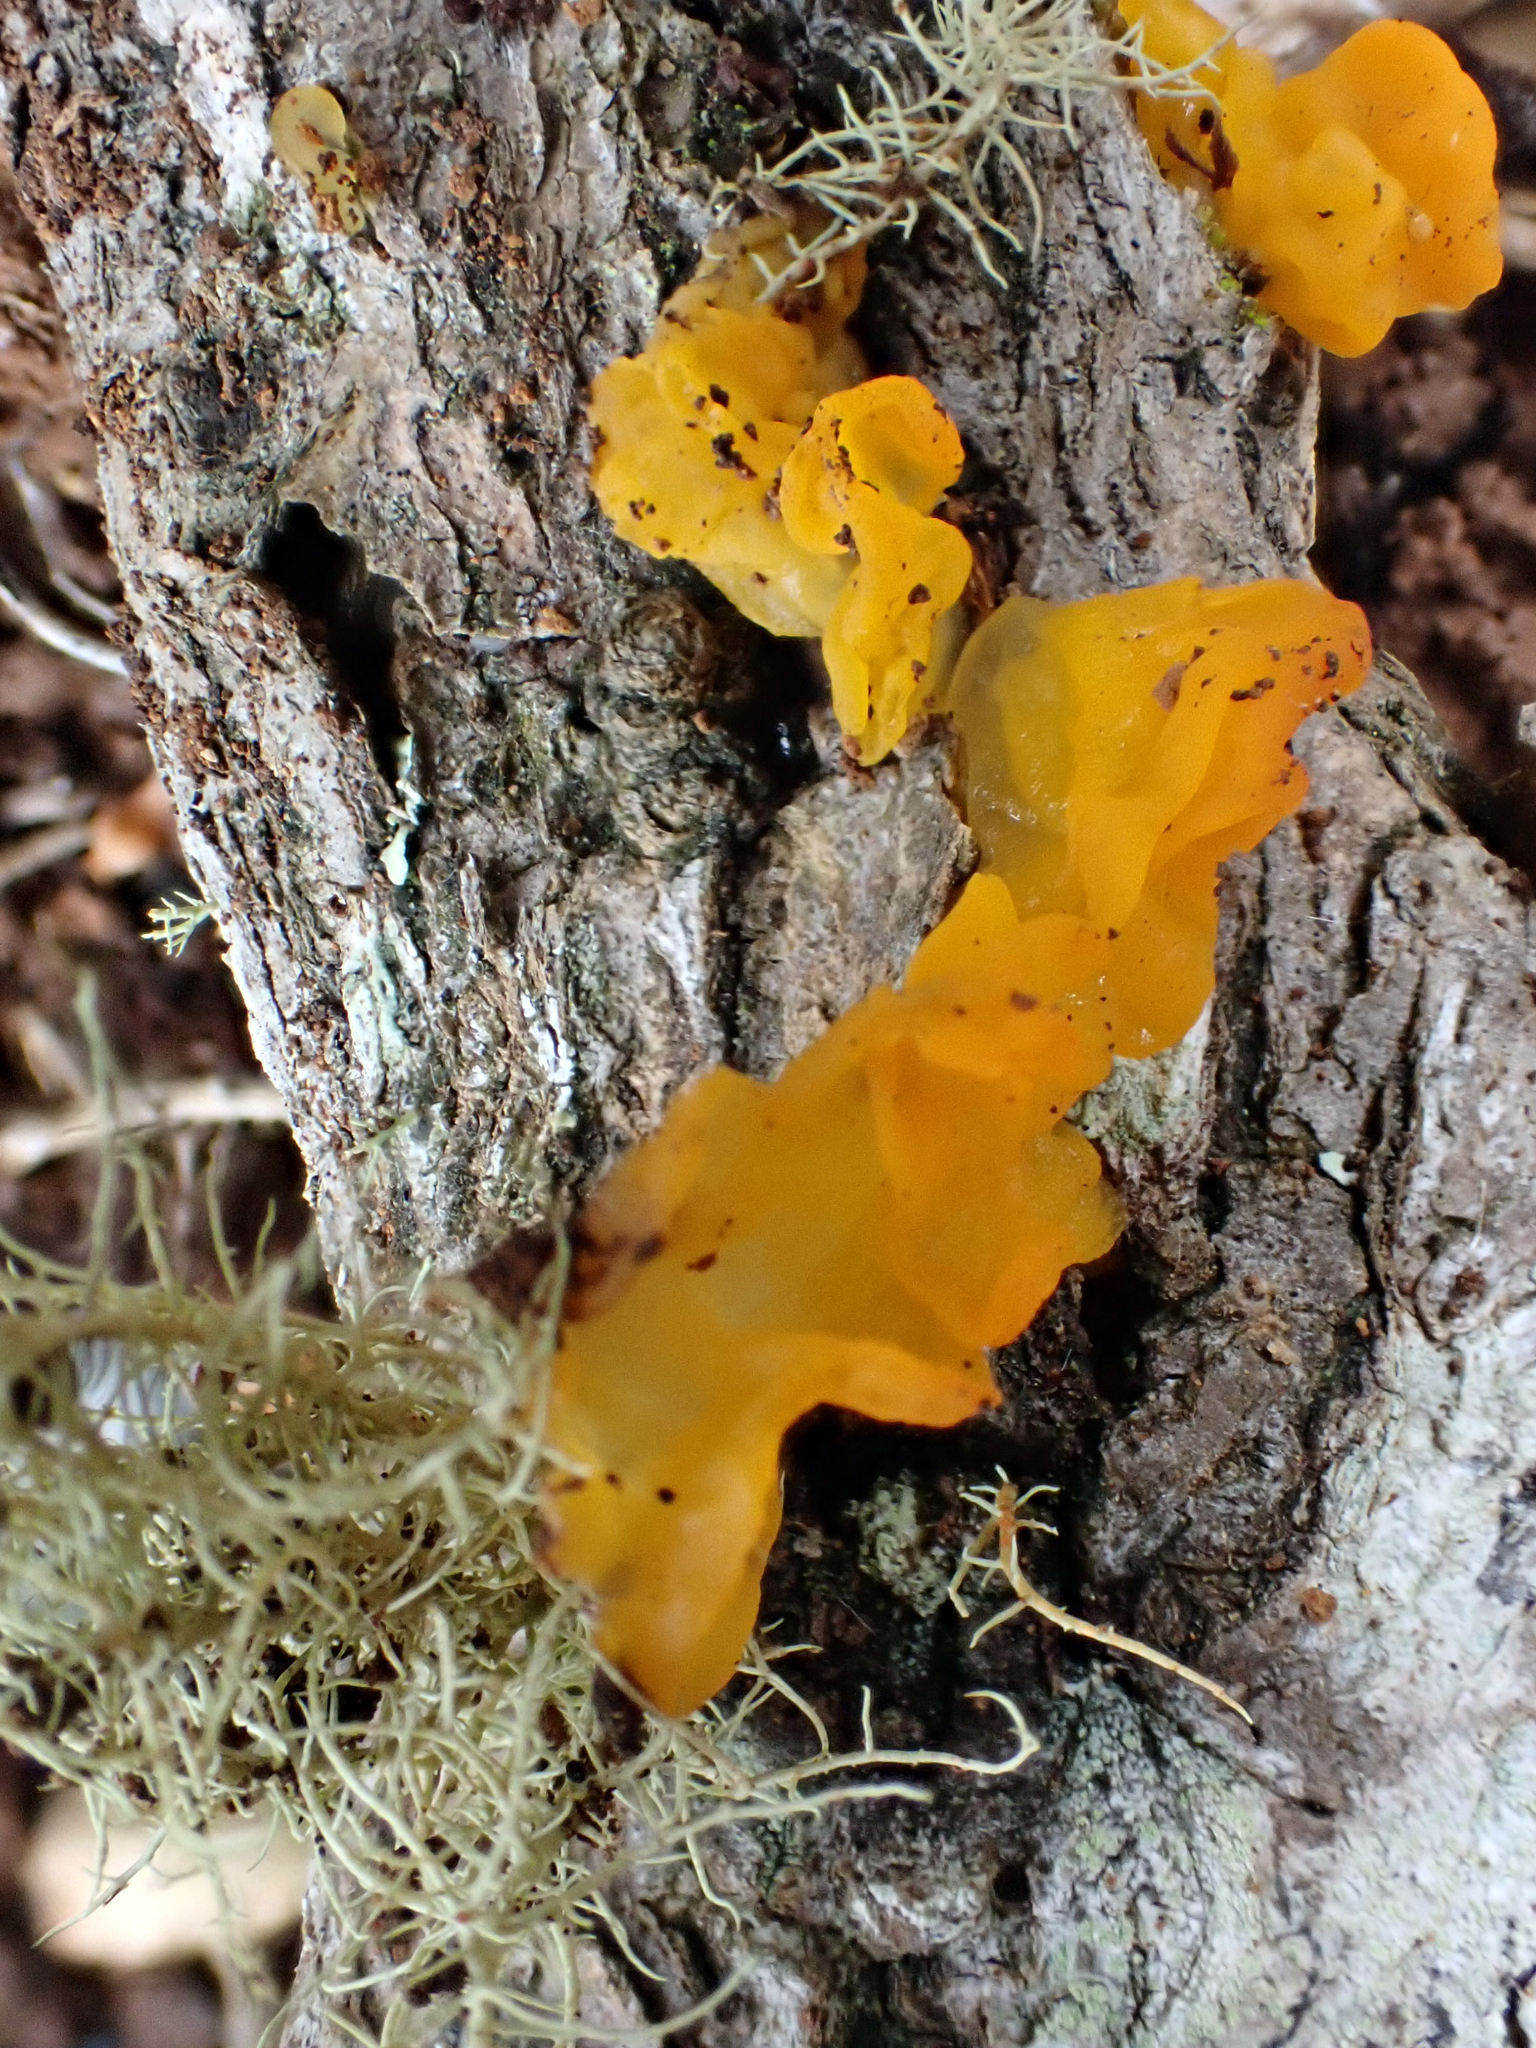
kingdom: Fungi
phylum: Basidiomycota
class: Tremellomycetes
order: Tremellales
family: Tremellaceae
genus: Tremella
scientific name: Tremella mesenterica
